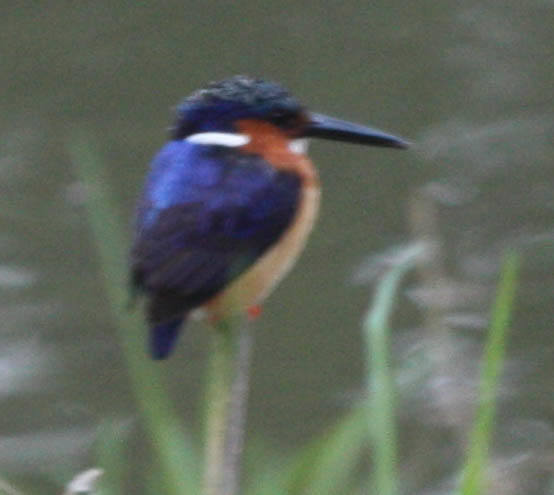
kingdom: Animalia
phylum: Chordata
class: Aves
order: Coraciiformes
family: Alcedinidae
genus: Corythornis
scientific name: Corythornis vintsioides
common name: Malagasy kingfisher
